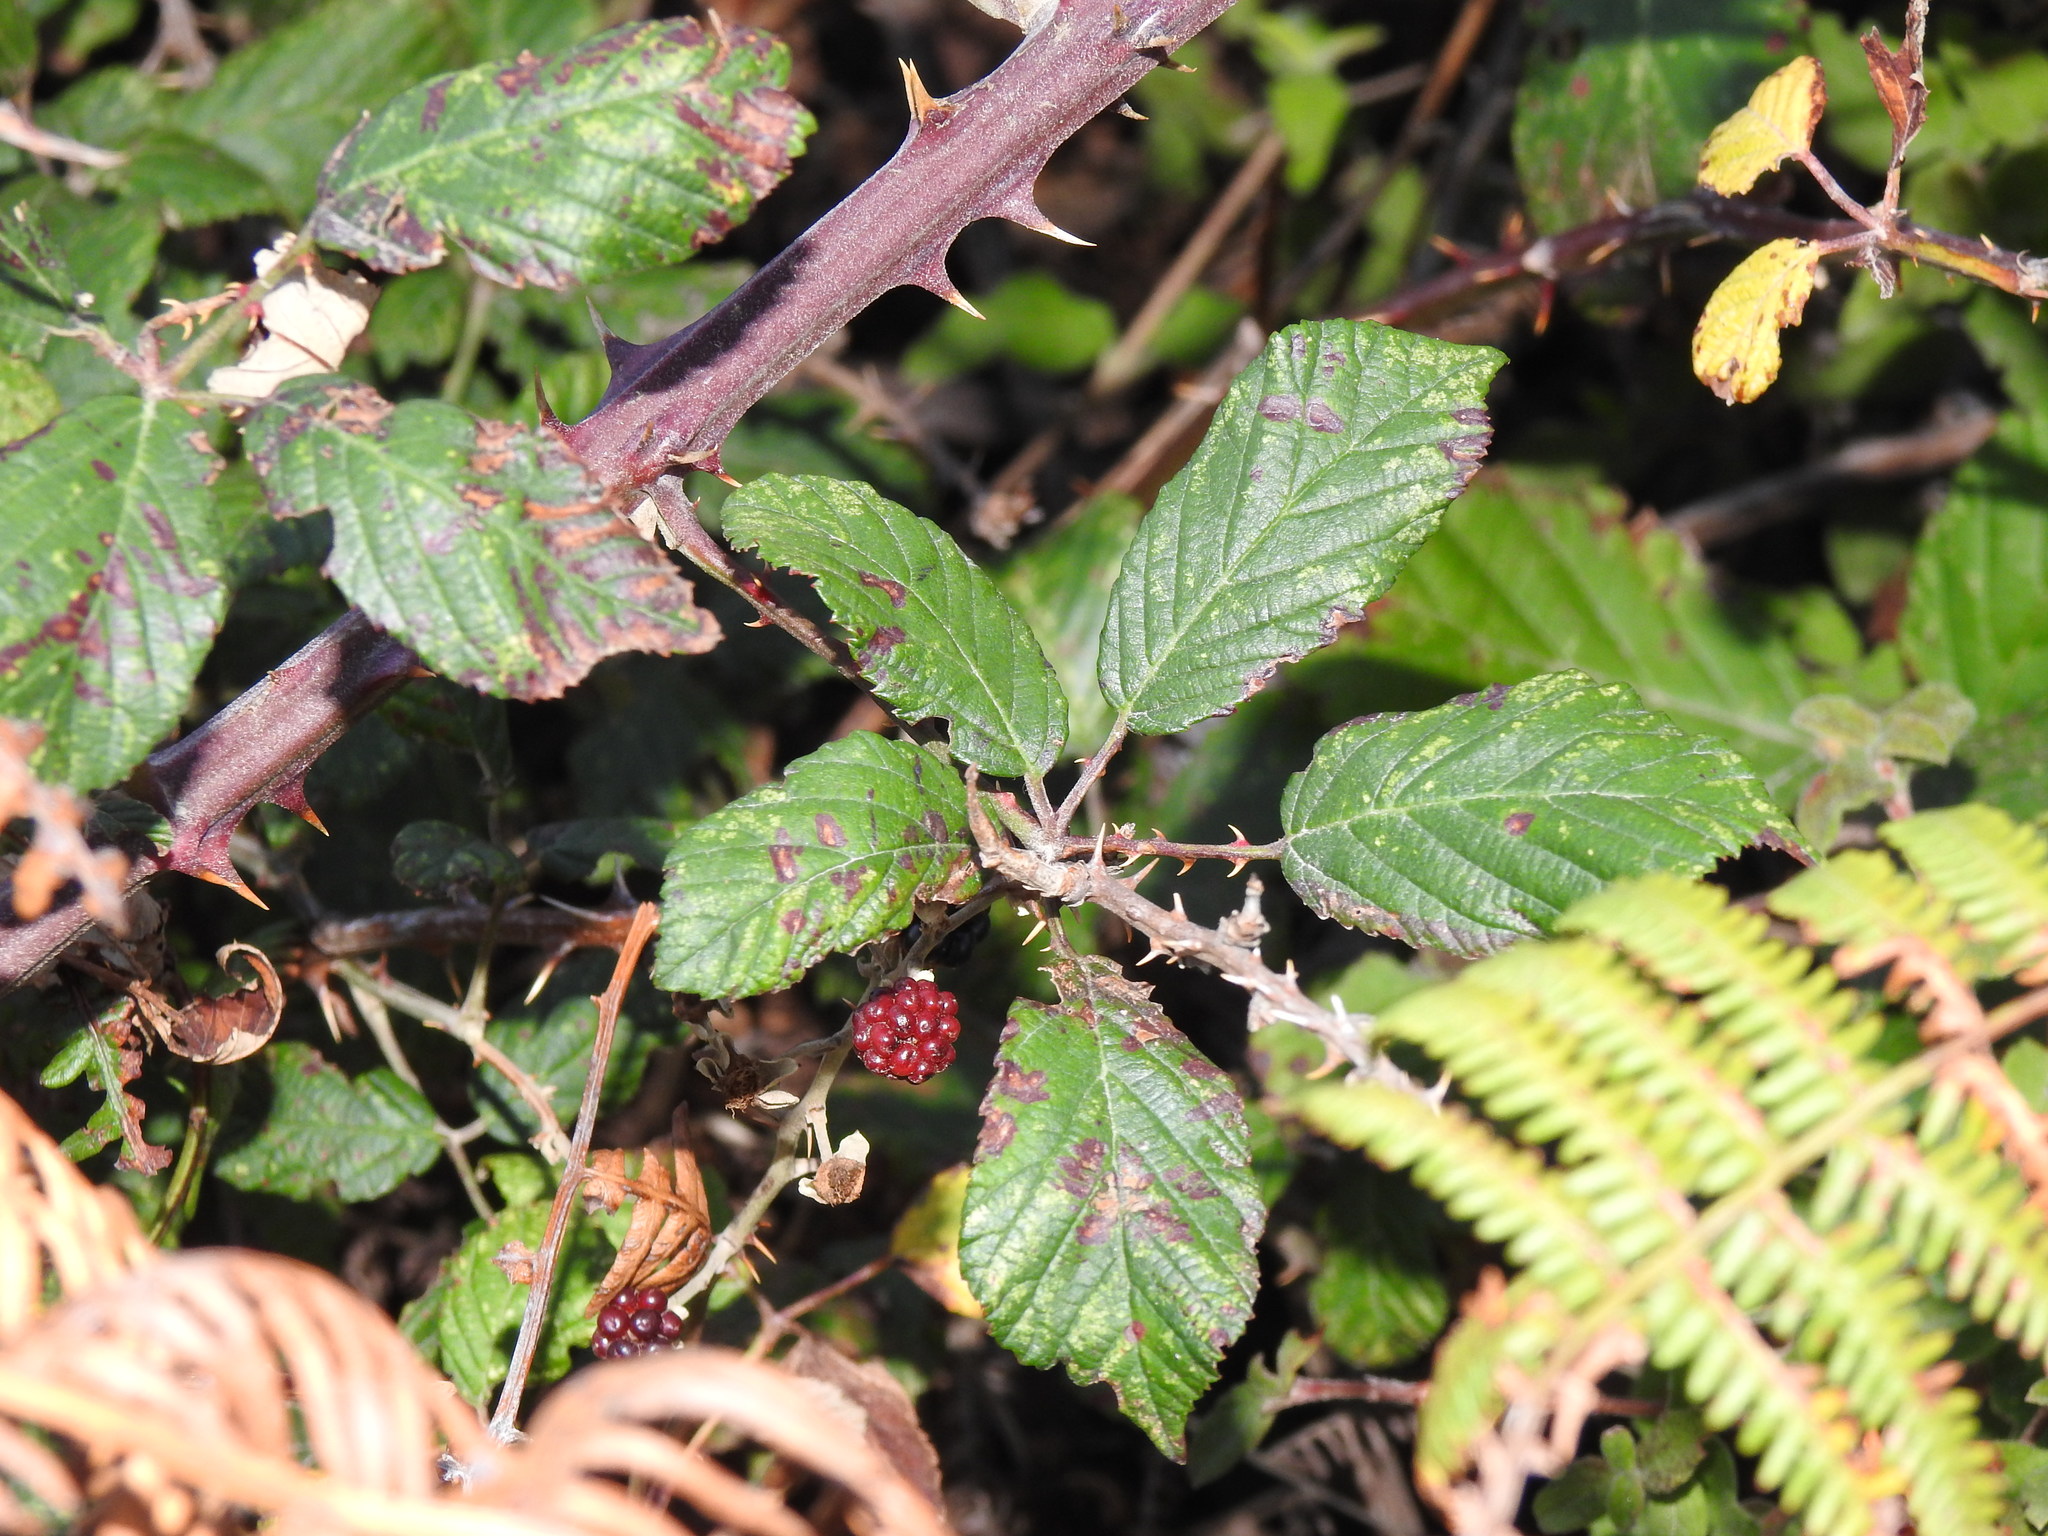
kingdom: Plantae
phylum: Tracheophyta
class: Magnoliopsida
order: Rosales
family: Rosaceae
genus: Rubus
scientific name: Rubus ulmifolius
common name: Elmleaf blackberry
